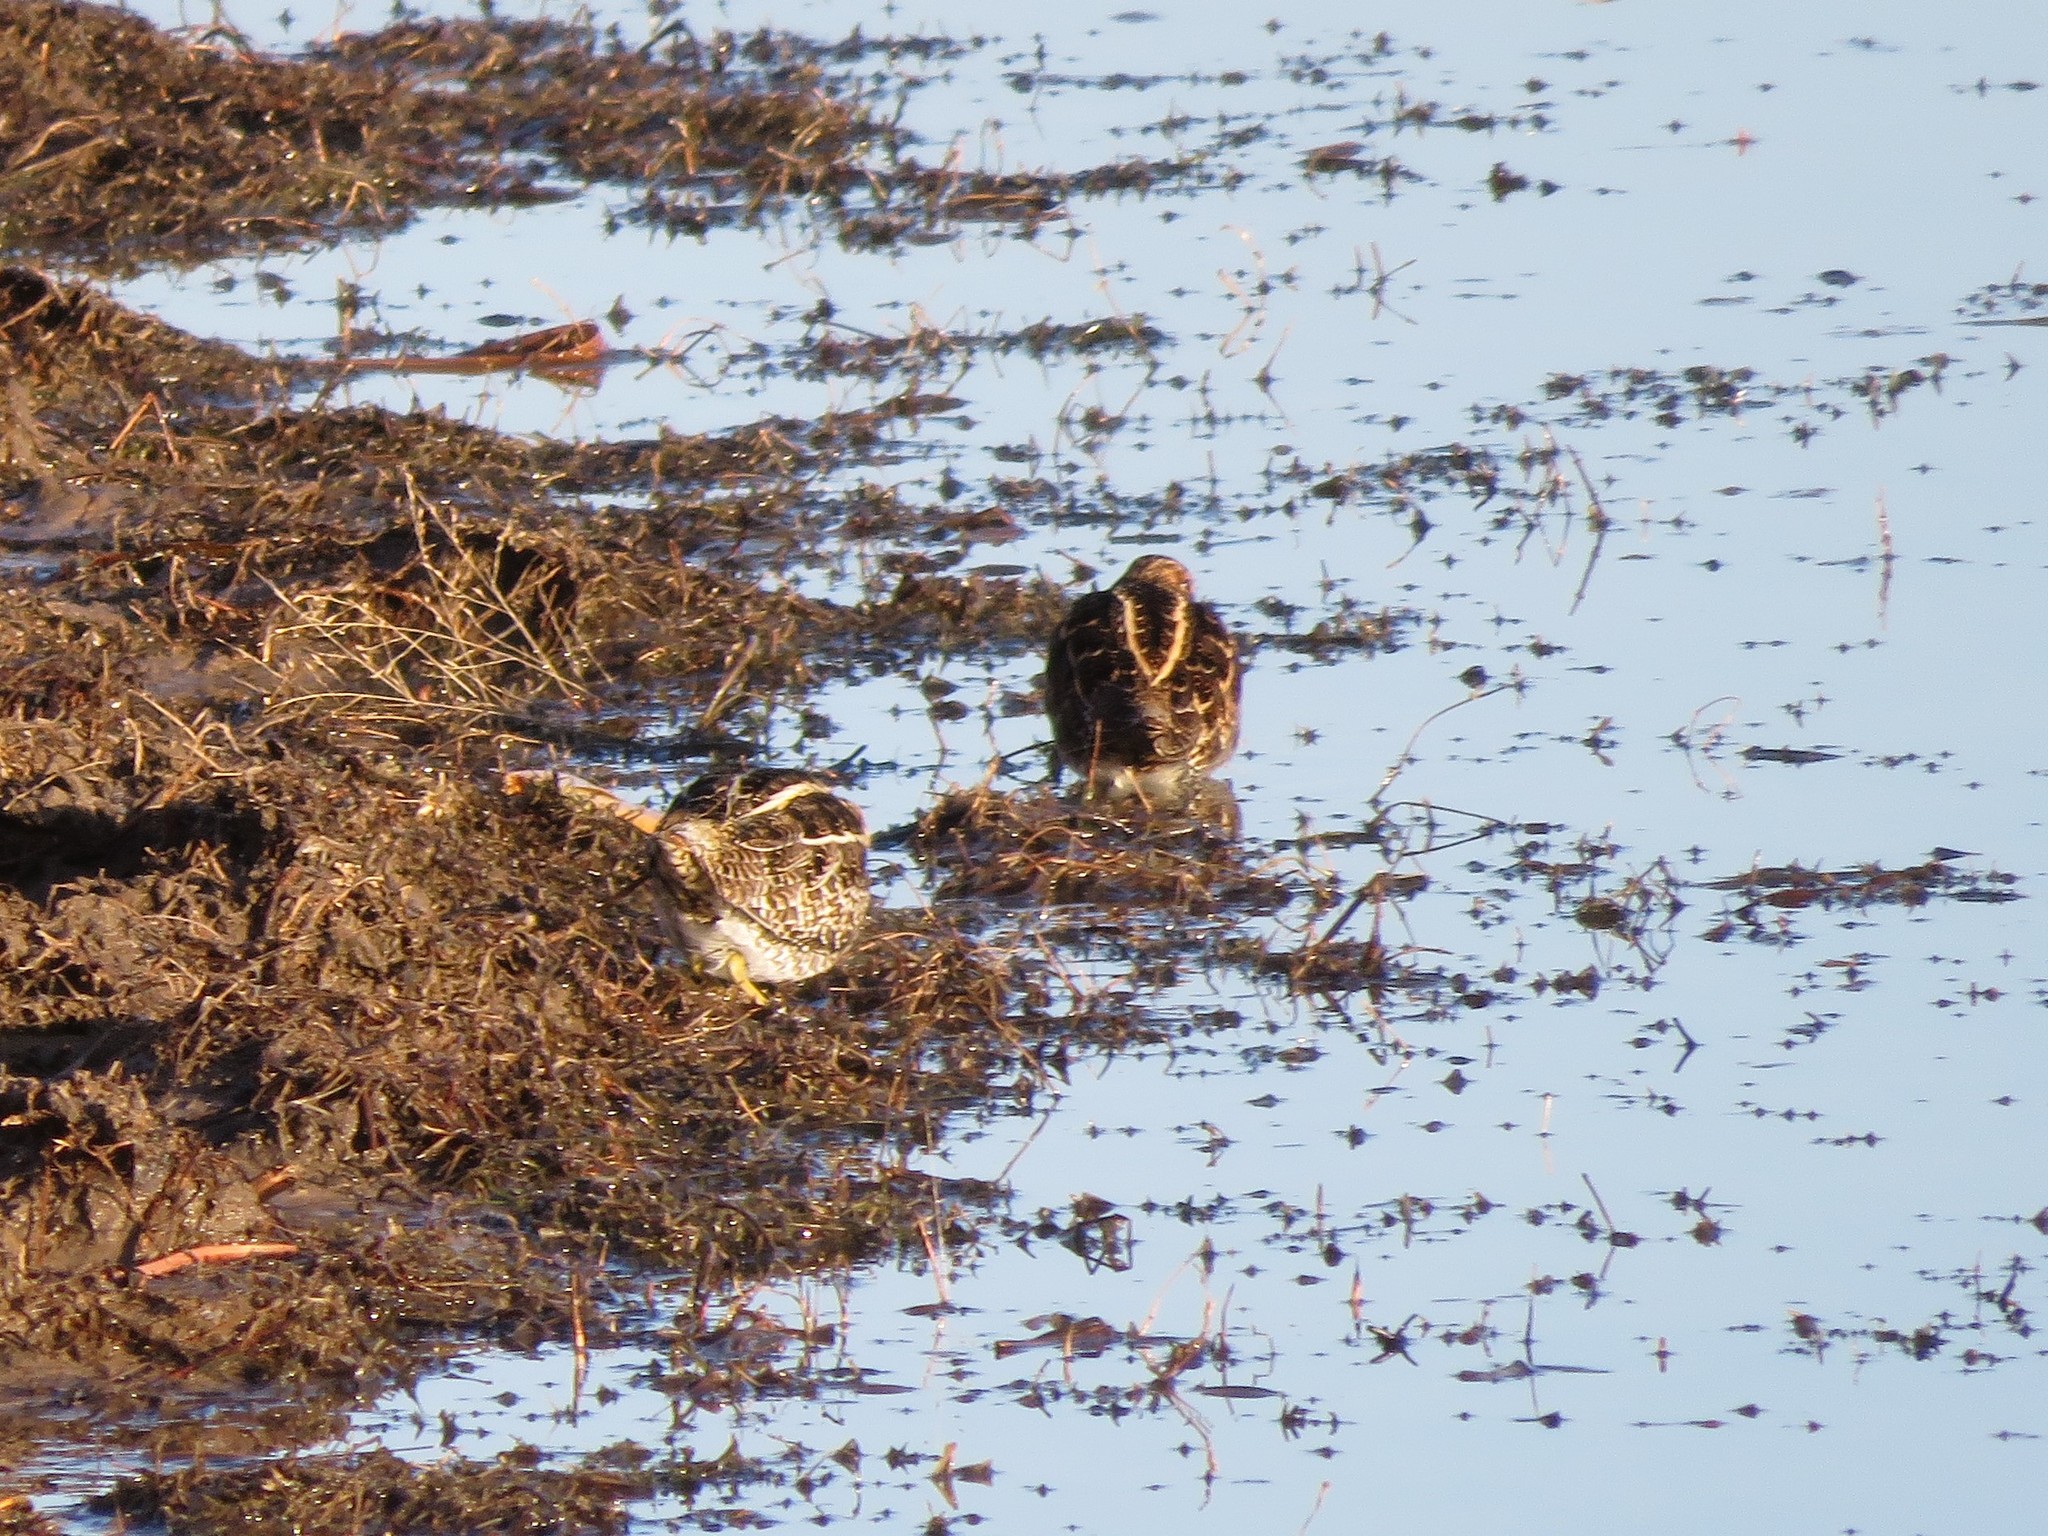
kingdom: Animalia
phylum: Chordata
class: Aves
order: Charadriiformes
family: Scolopacidae
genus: Gallinago
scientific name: Gallinago delicata
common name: Wilson's snipe
